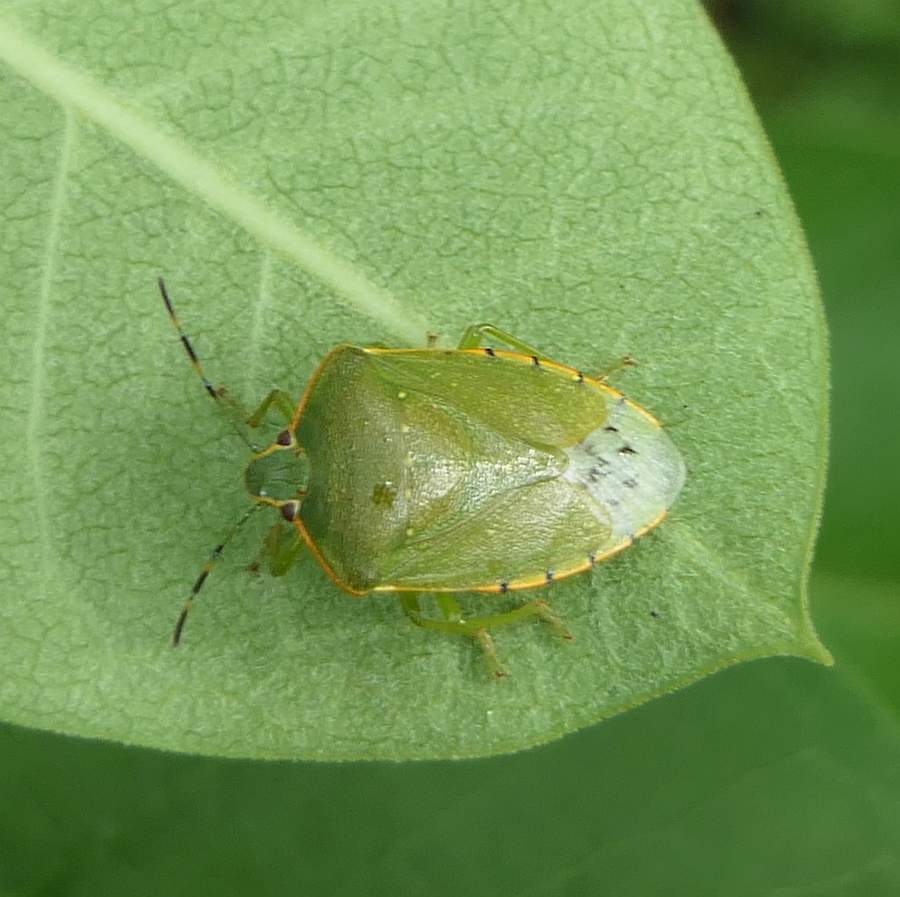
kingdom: Animalia
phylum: Arthropoda
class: Insecta
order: Hemiptera
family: Pentatomidae
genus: Chinavia
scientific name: Chinavia hilaris
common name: Green stink bug
